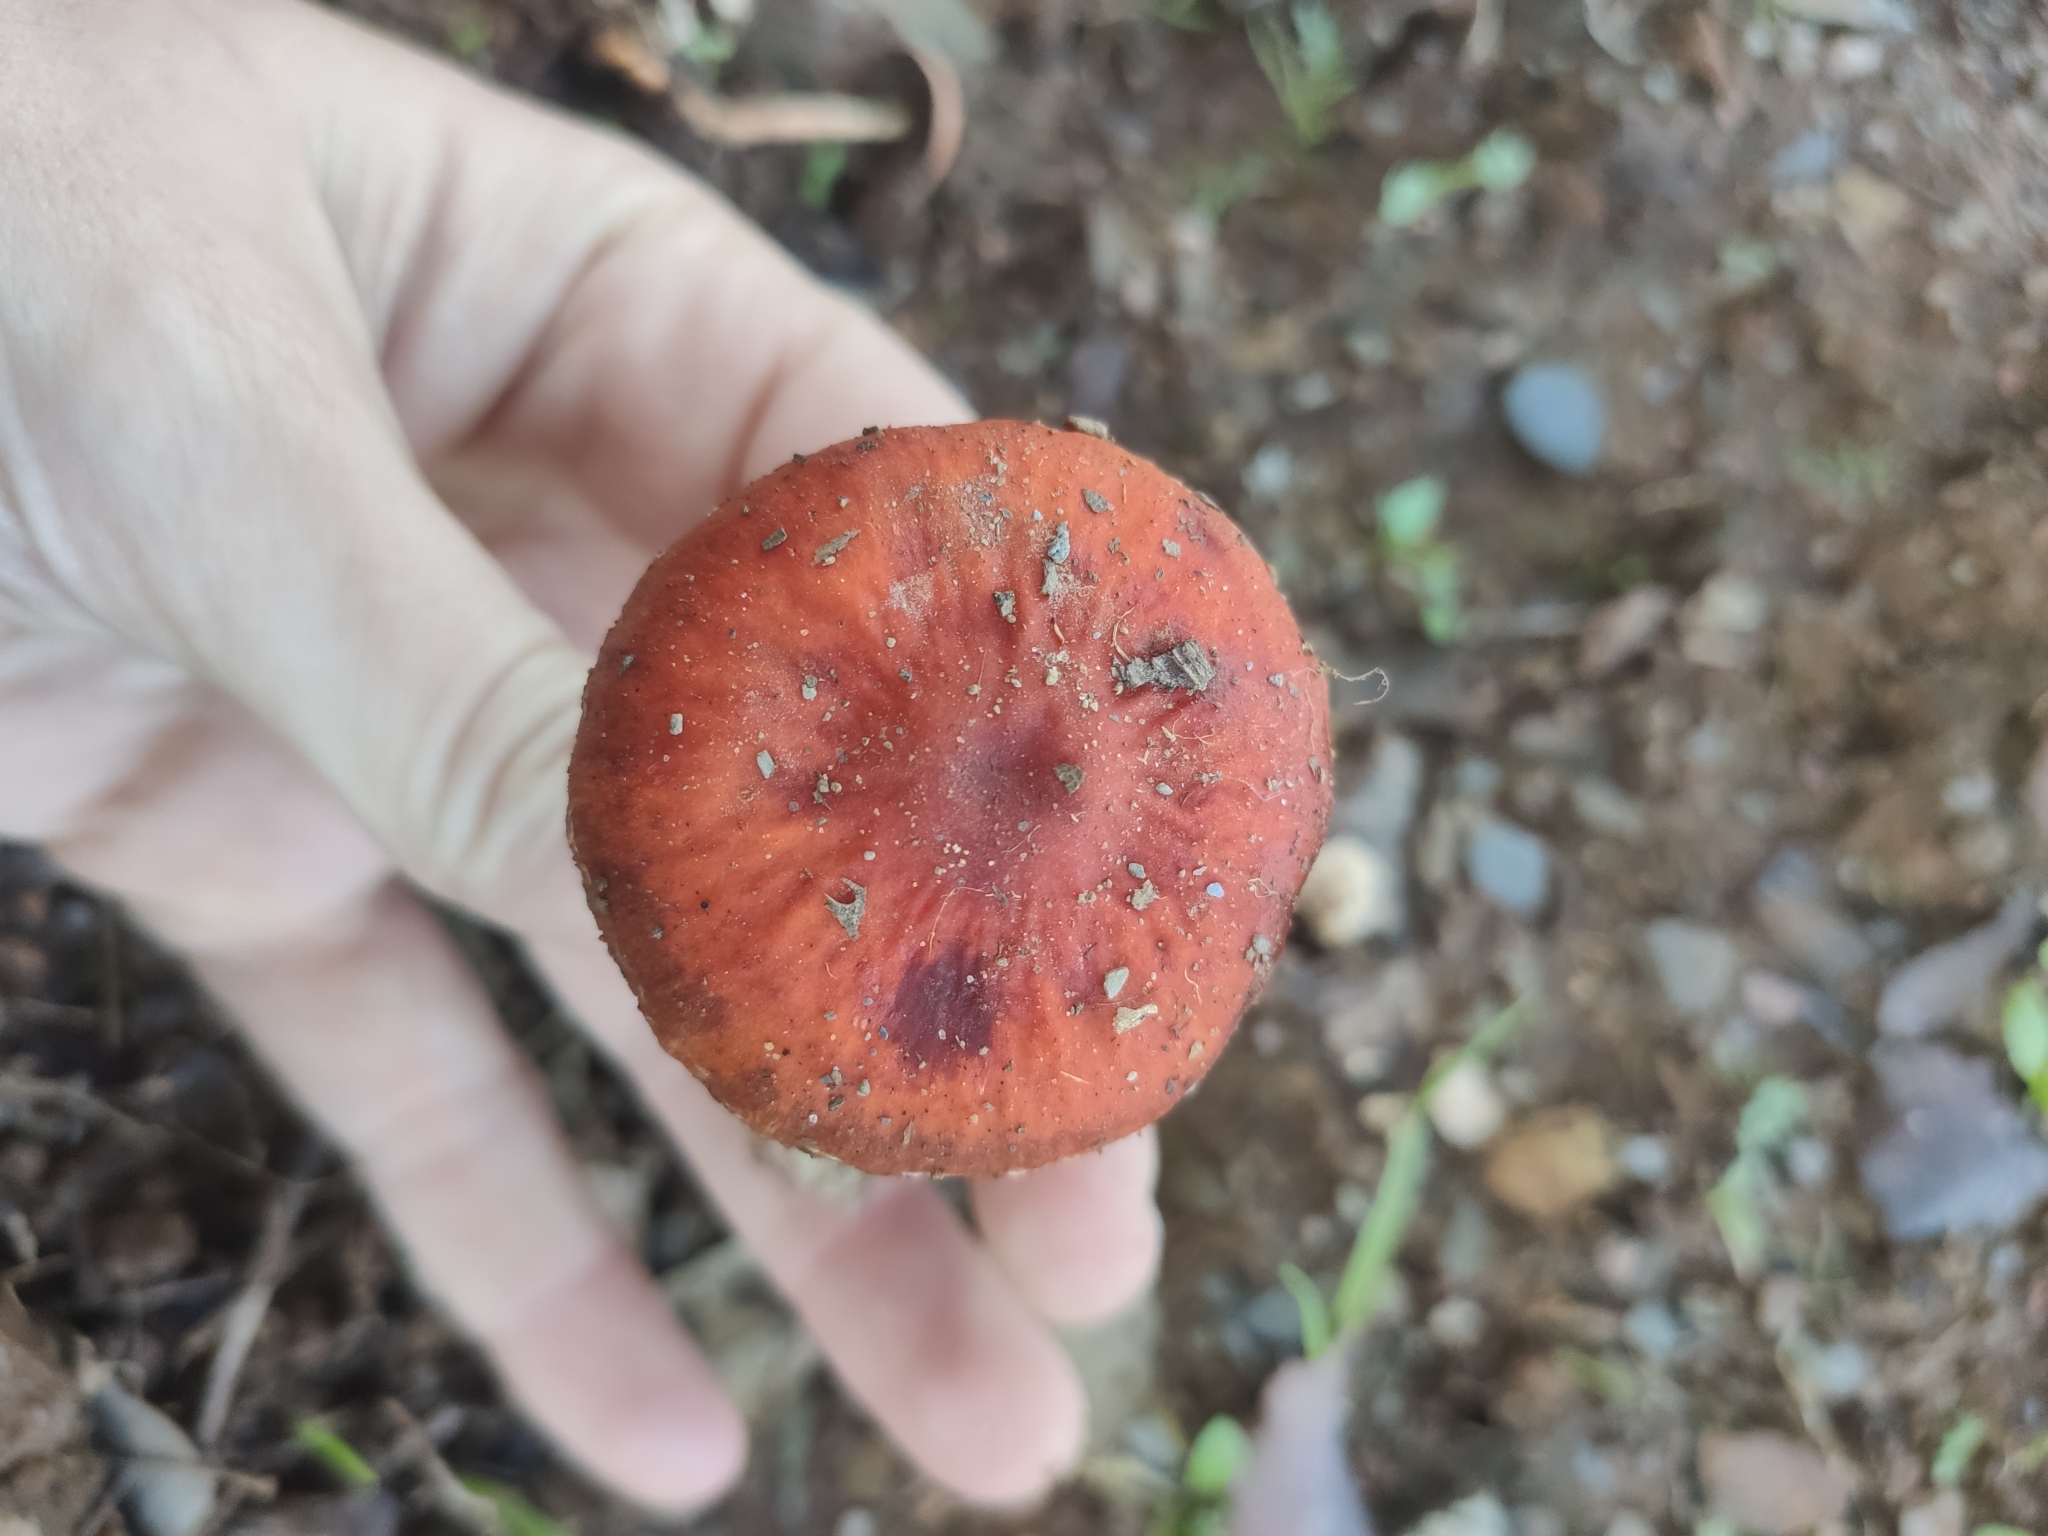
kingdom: Fungi
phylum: Basidiomycota
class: Agaricomycetes
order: Agaricales
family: Strophariaceae
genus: Leratiomyces
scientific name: Leratiomyces ceres
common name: Redlead roundhead
